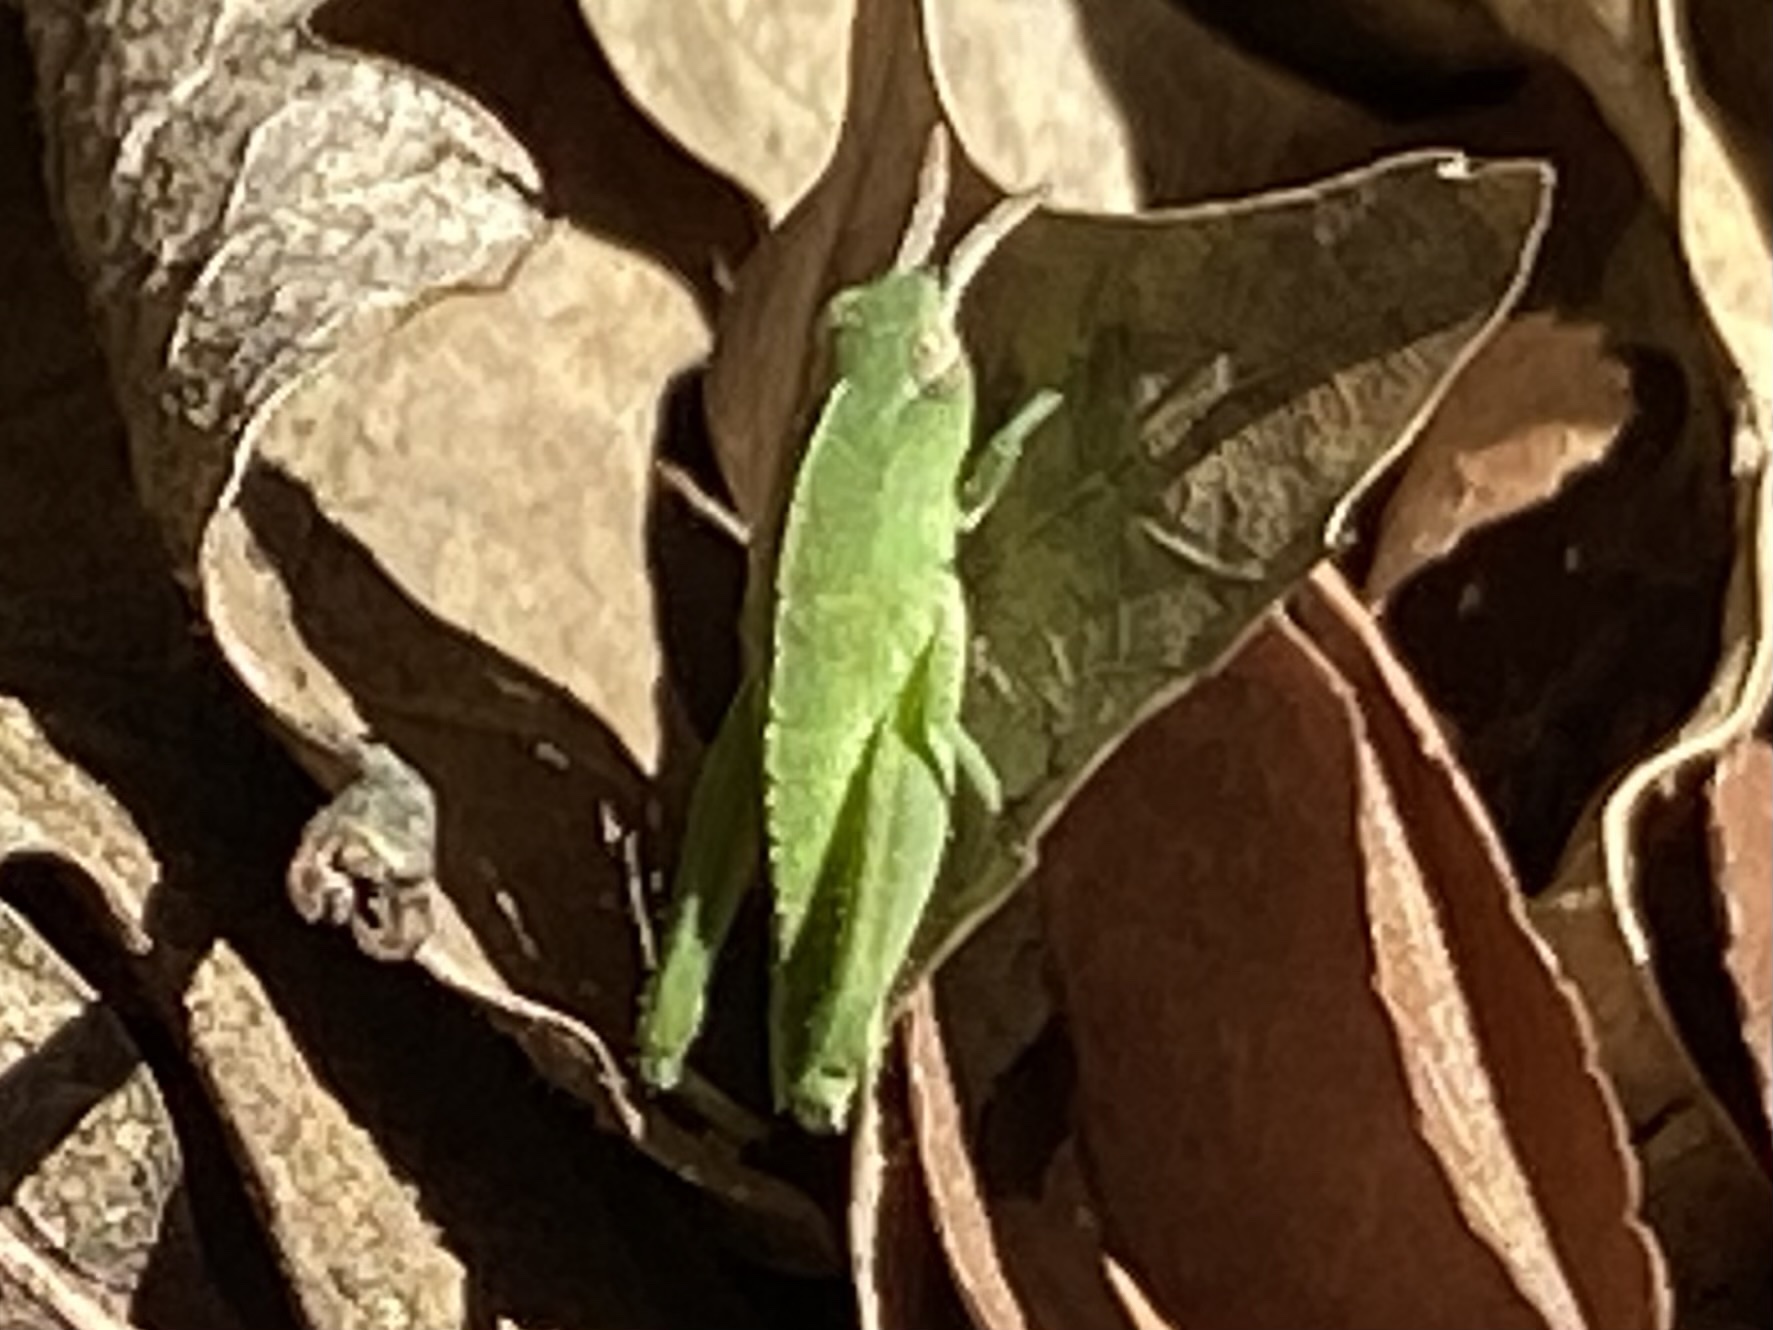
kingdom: Animalia
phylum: Arthropoda
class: Insecta
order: Orthoptera
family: Acrididae
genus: Chortophaga
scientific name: Chortophaga viridifasciata
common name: Green-striped grasshopper
